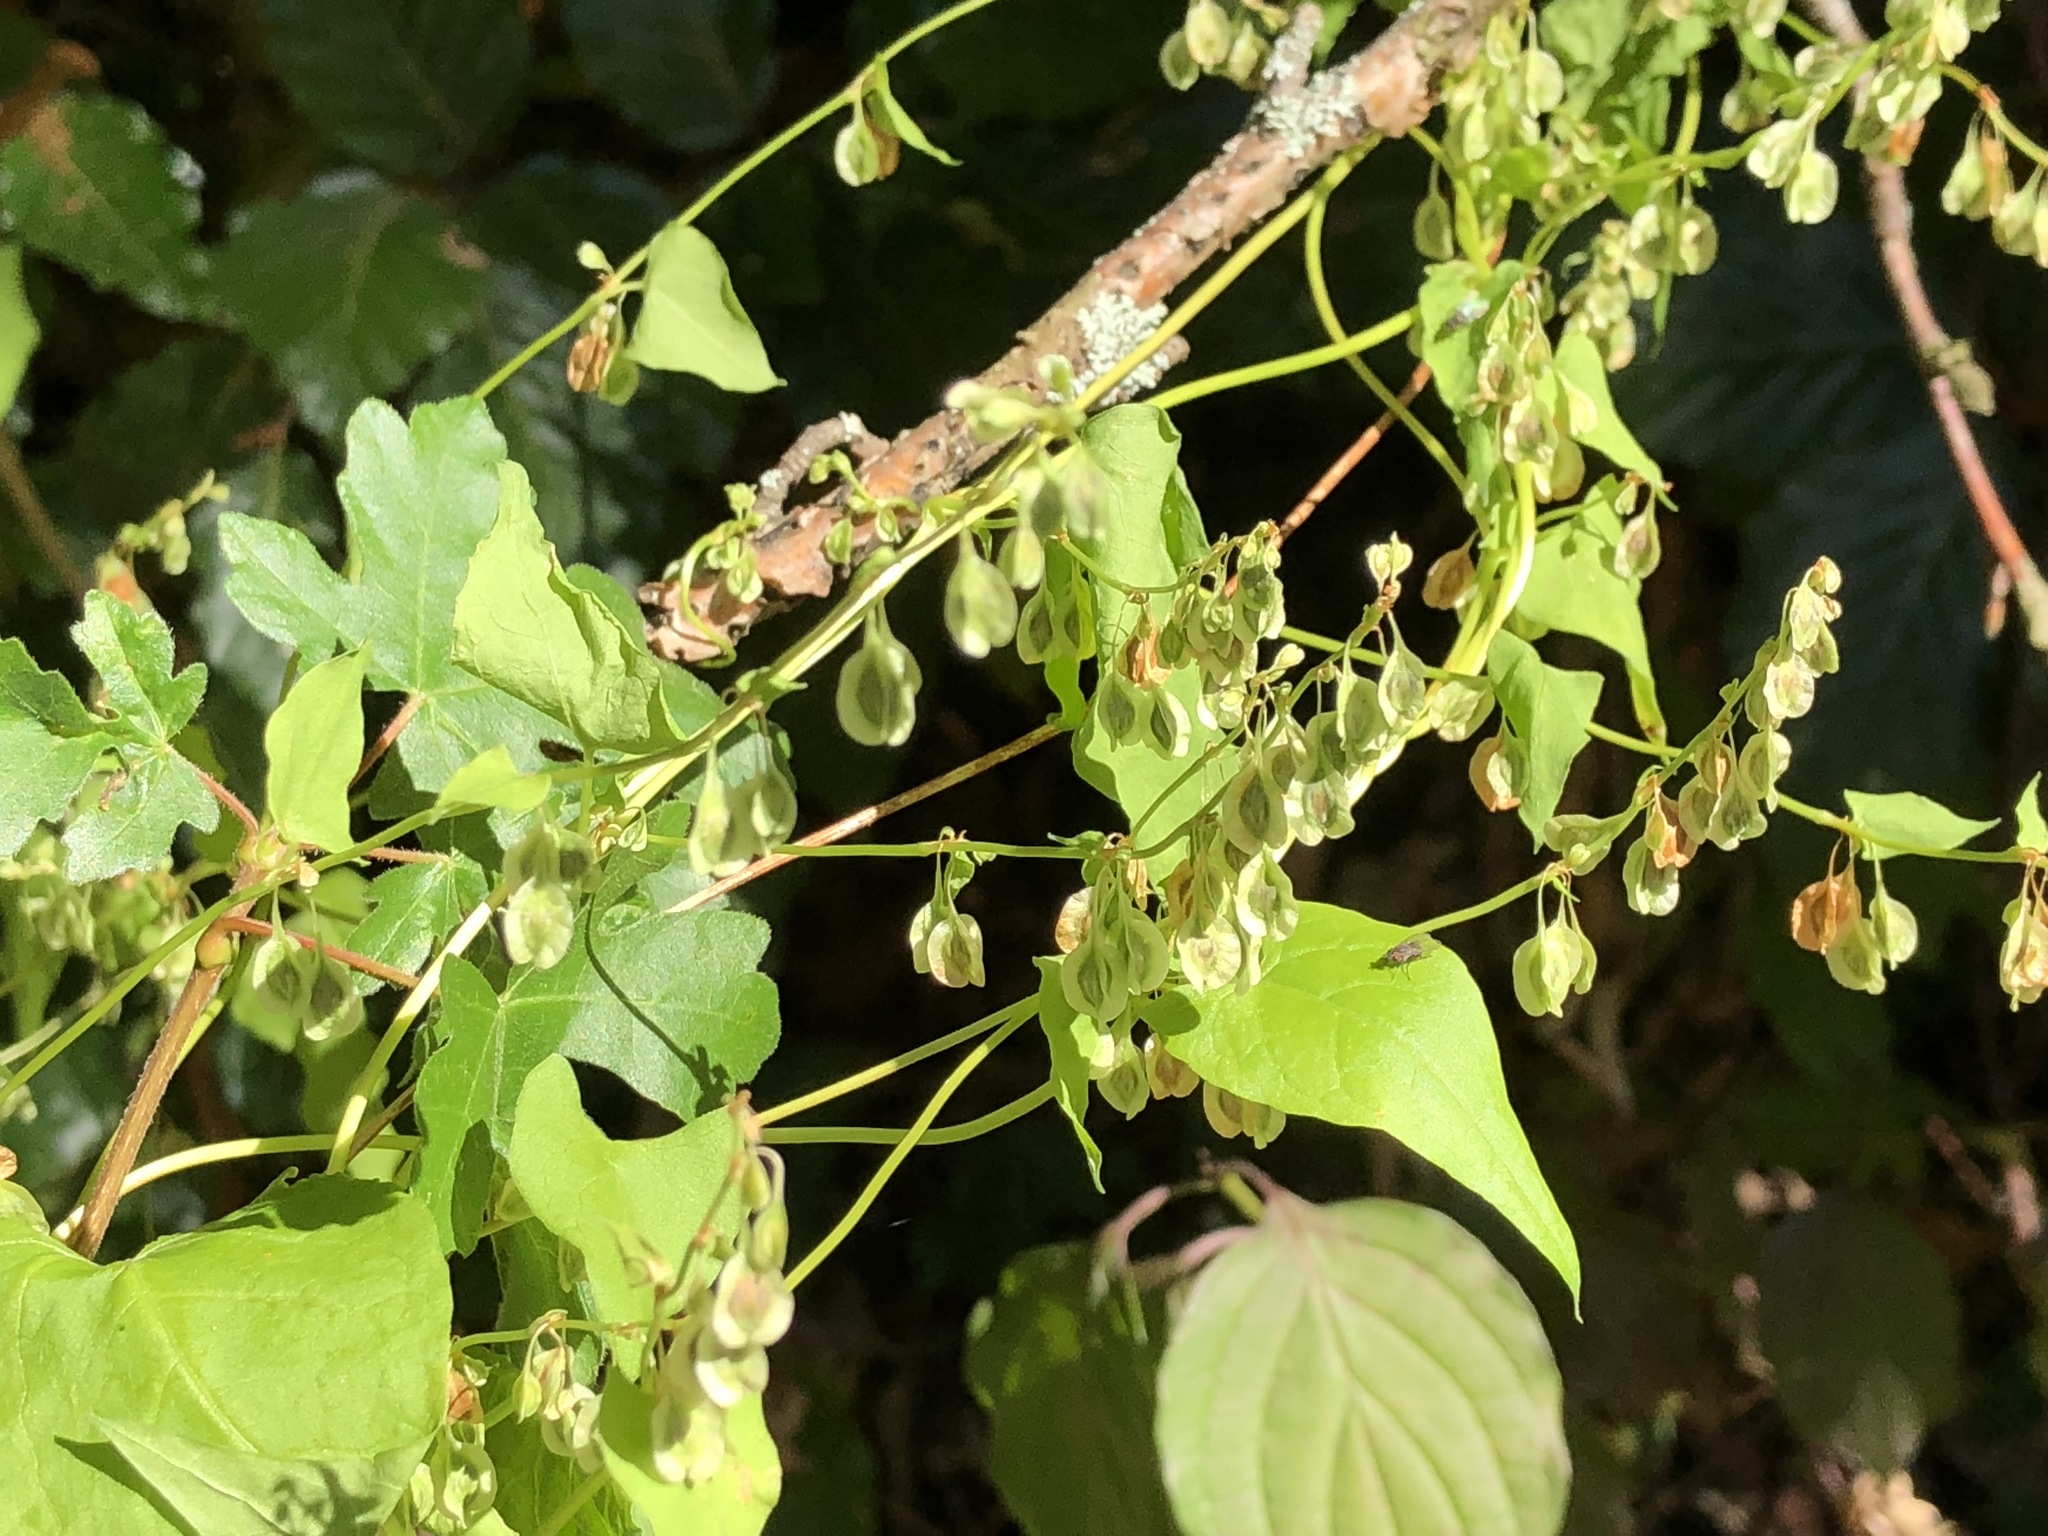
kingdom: Plantae
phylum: Tracheophyta
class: Magnoliopsida
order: Caryophyllales
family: Polygonaceae
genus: Fallopia
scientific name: Fallopia convolvulus
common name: Black bindweed
